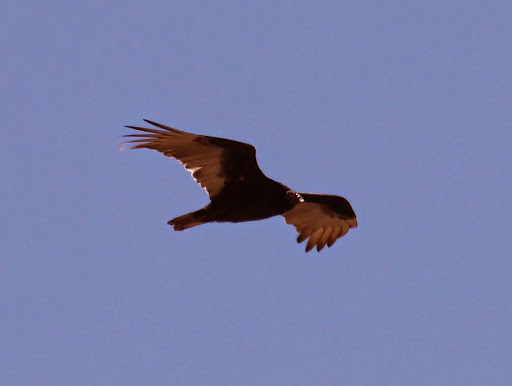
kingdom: Animalia
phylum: Chordata
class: Aves
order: Accipitriformes
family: Cathartidae
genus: Cathartes
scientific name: Cathartes aura
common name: Turkey vulture
